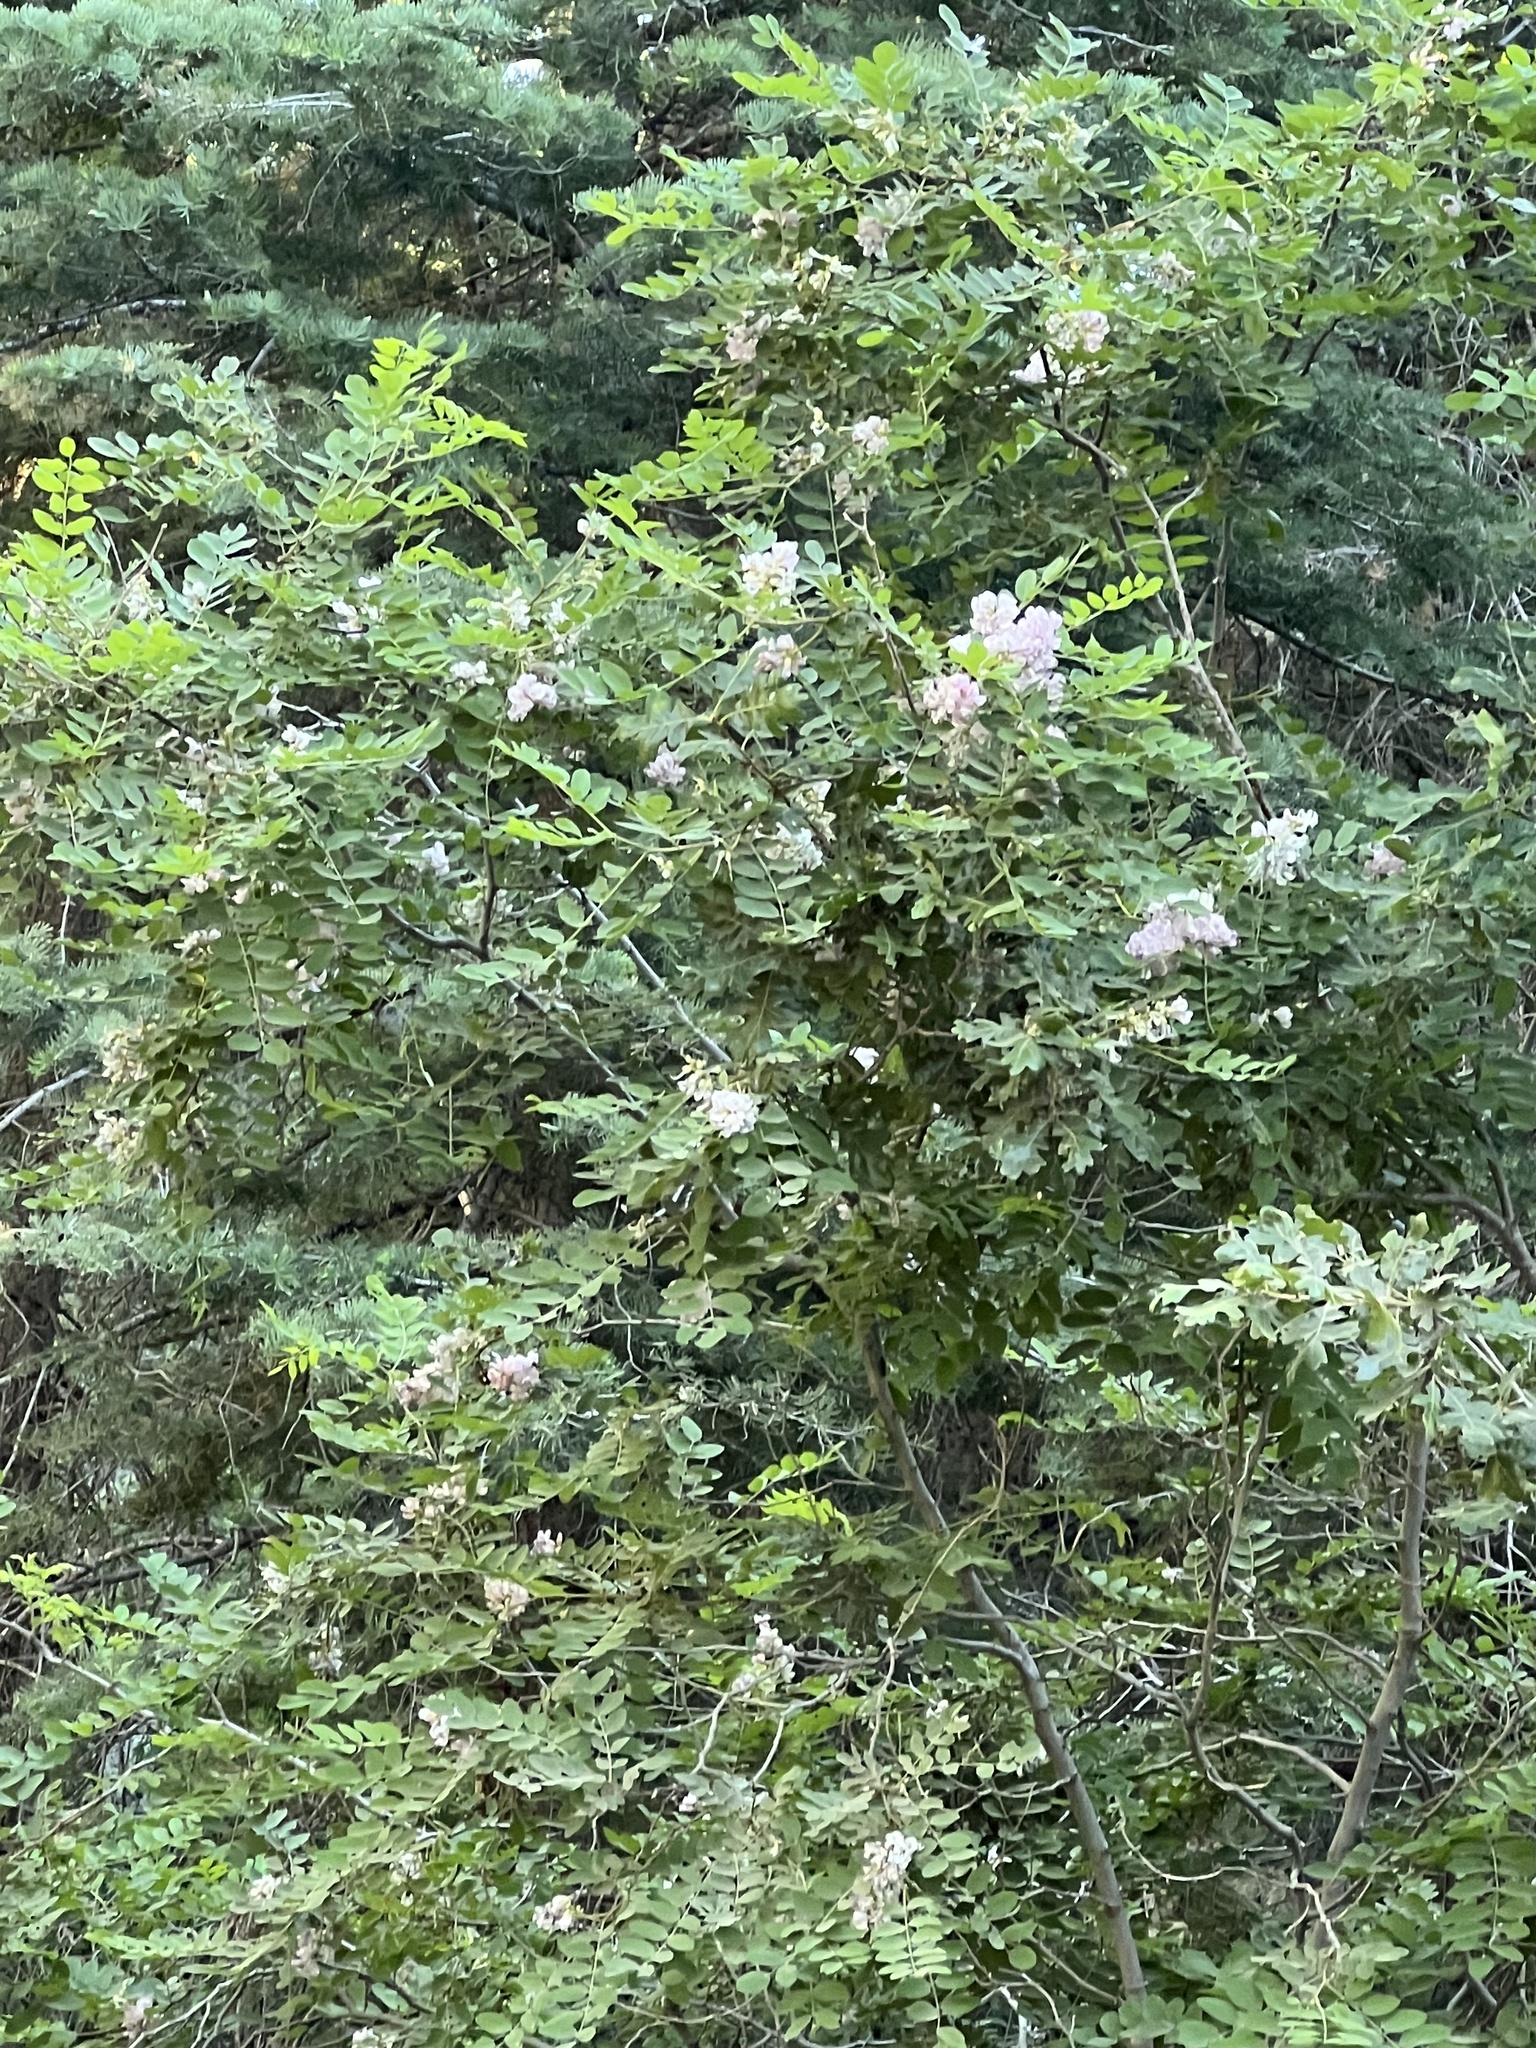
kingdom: Plantae
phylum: Tracheophyta
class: Magnoliopsida
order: Fabales
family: Fabaceae
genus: Robinia
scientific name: Robinia neomexicana
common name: New mexico locust
